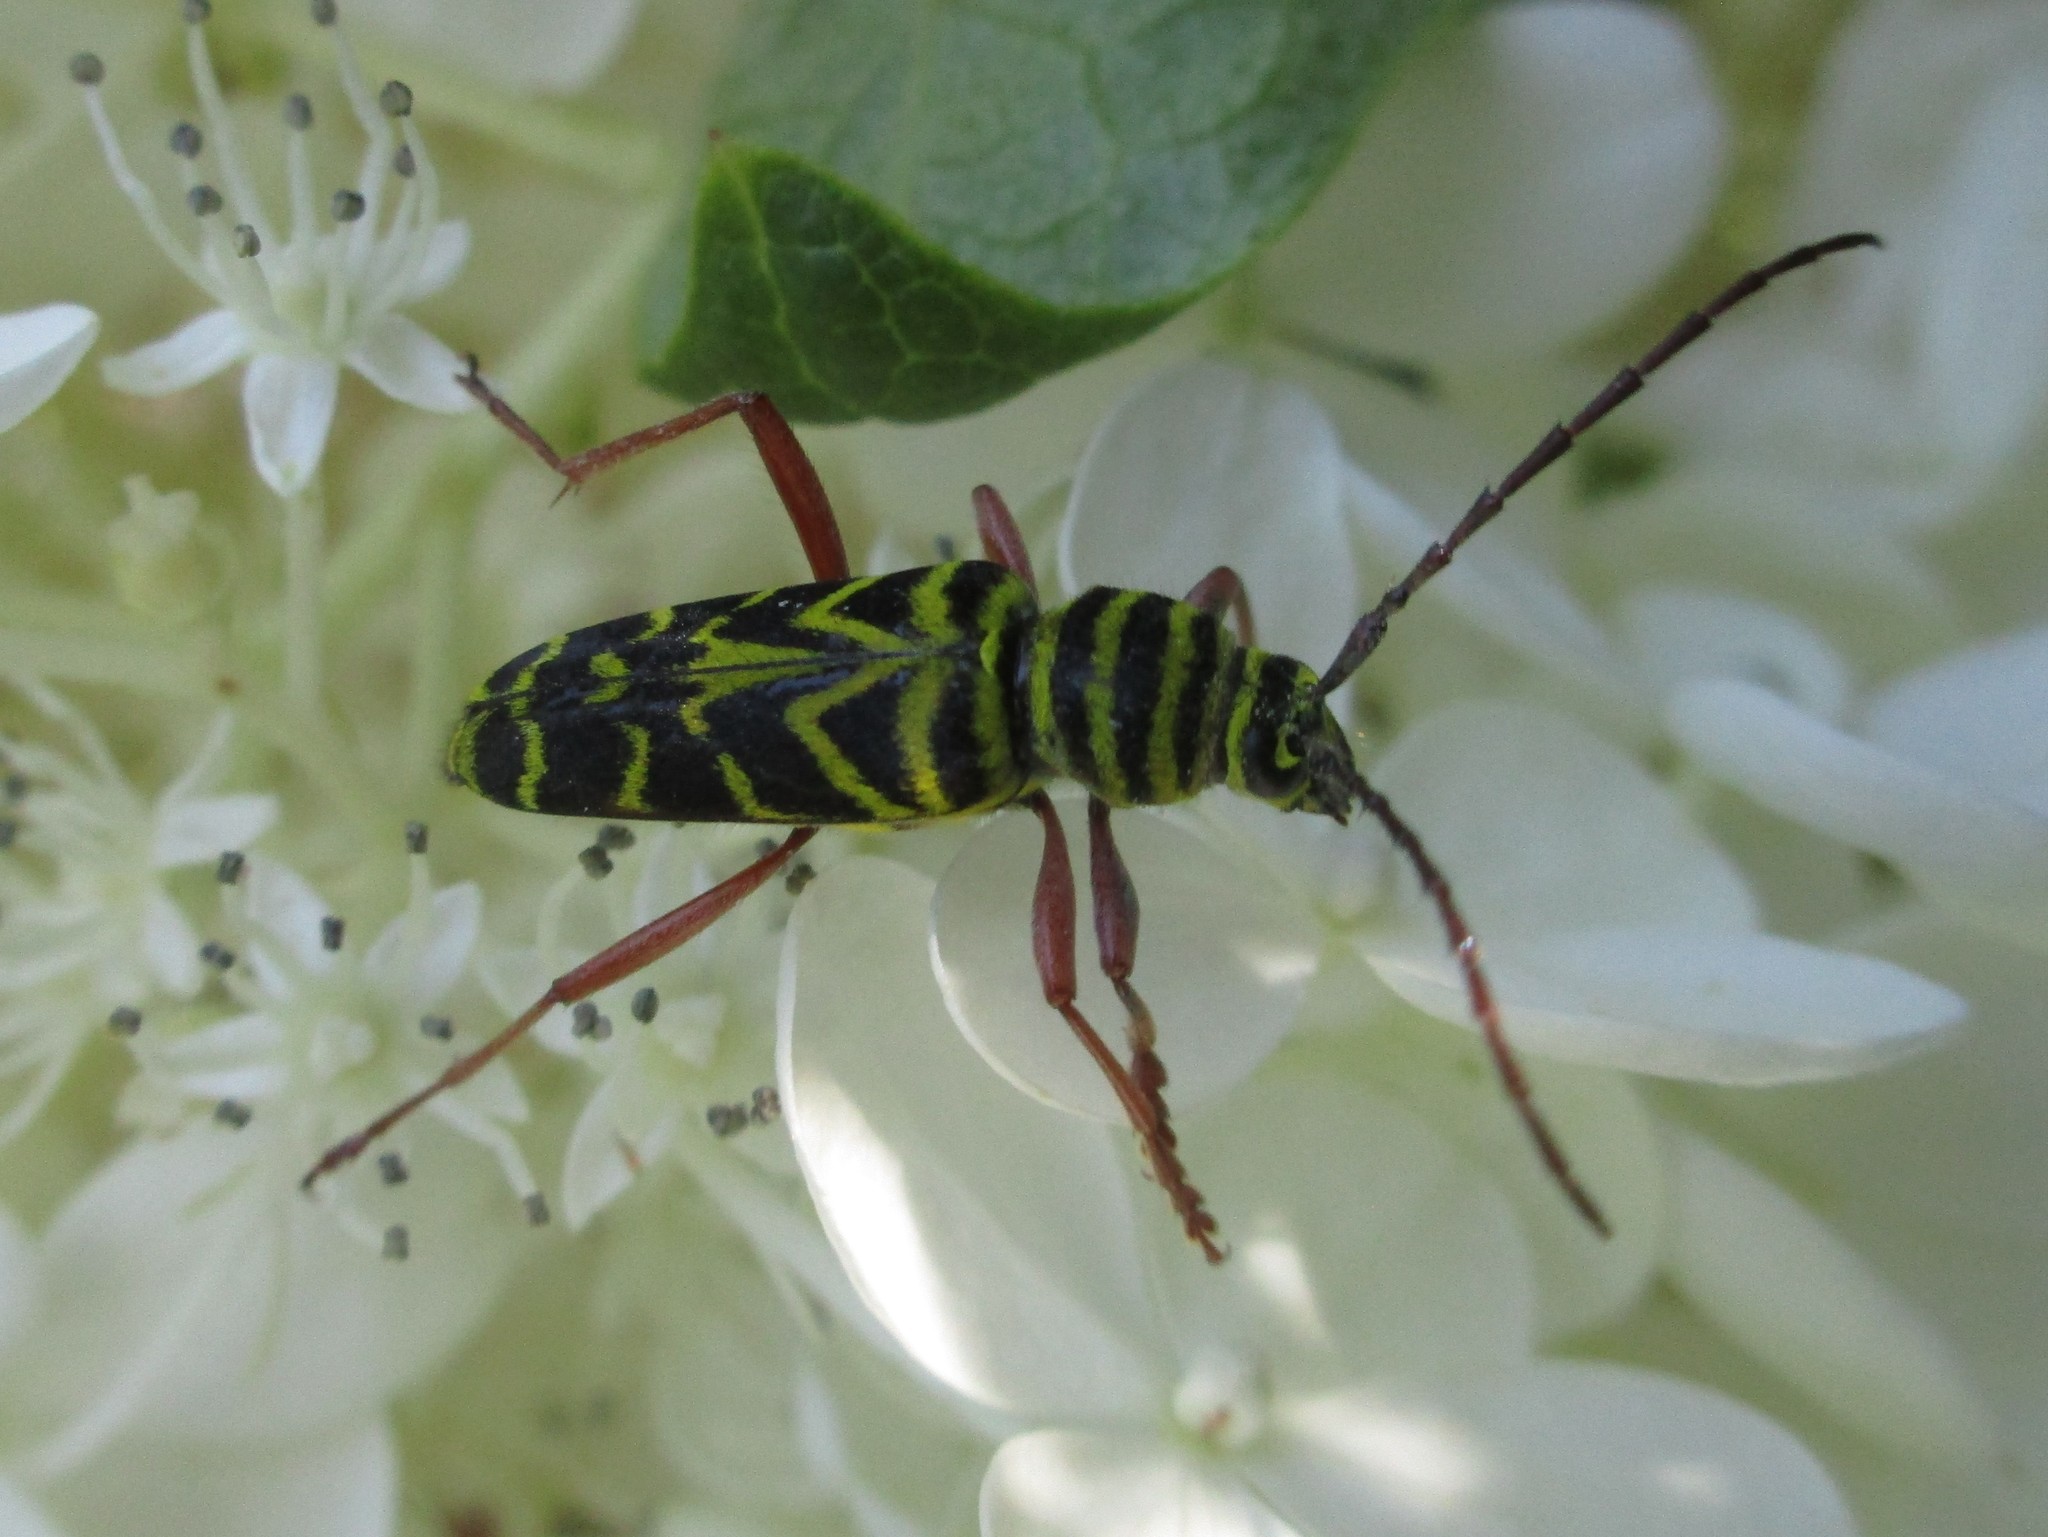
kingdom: Animalia
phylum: Arthropoda
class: Insecta
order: Coleoptera
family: Cerambycidae
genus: Megacyllene
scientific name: Megacyllene robiniae
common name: Locust borer
